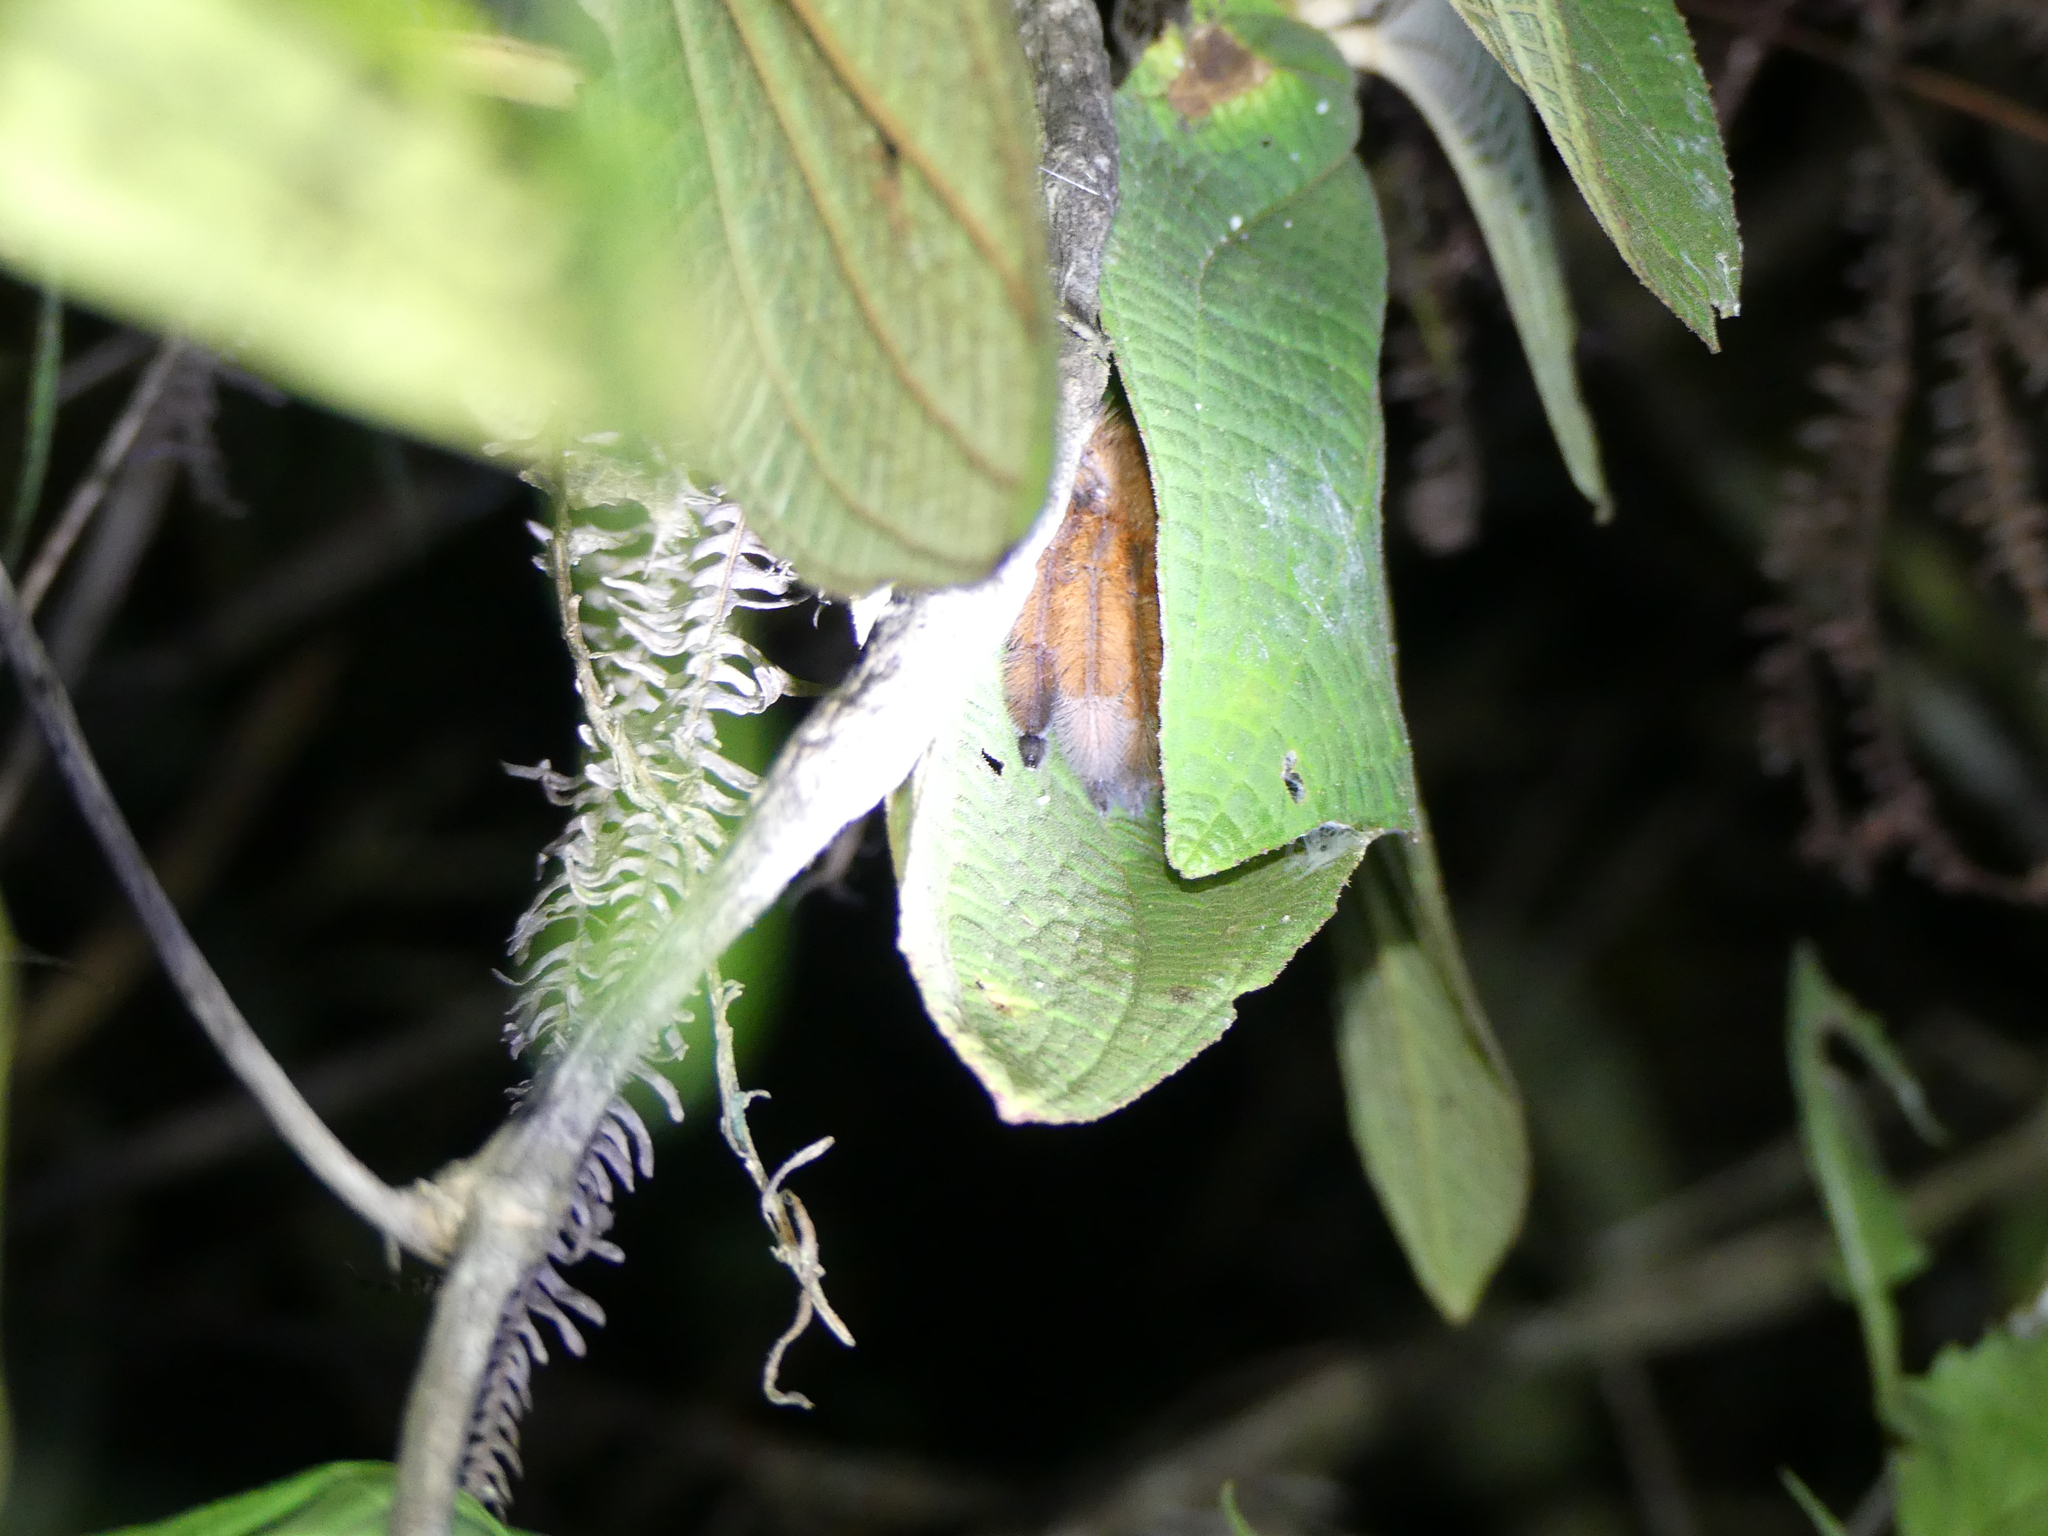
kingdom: Animalia
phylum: Arthropoda
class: Arachnida
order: Araneae
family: Sparassidae
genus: Megaloremmius
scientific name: Megaloremmius leo
